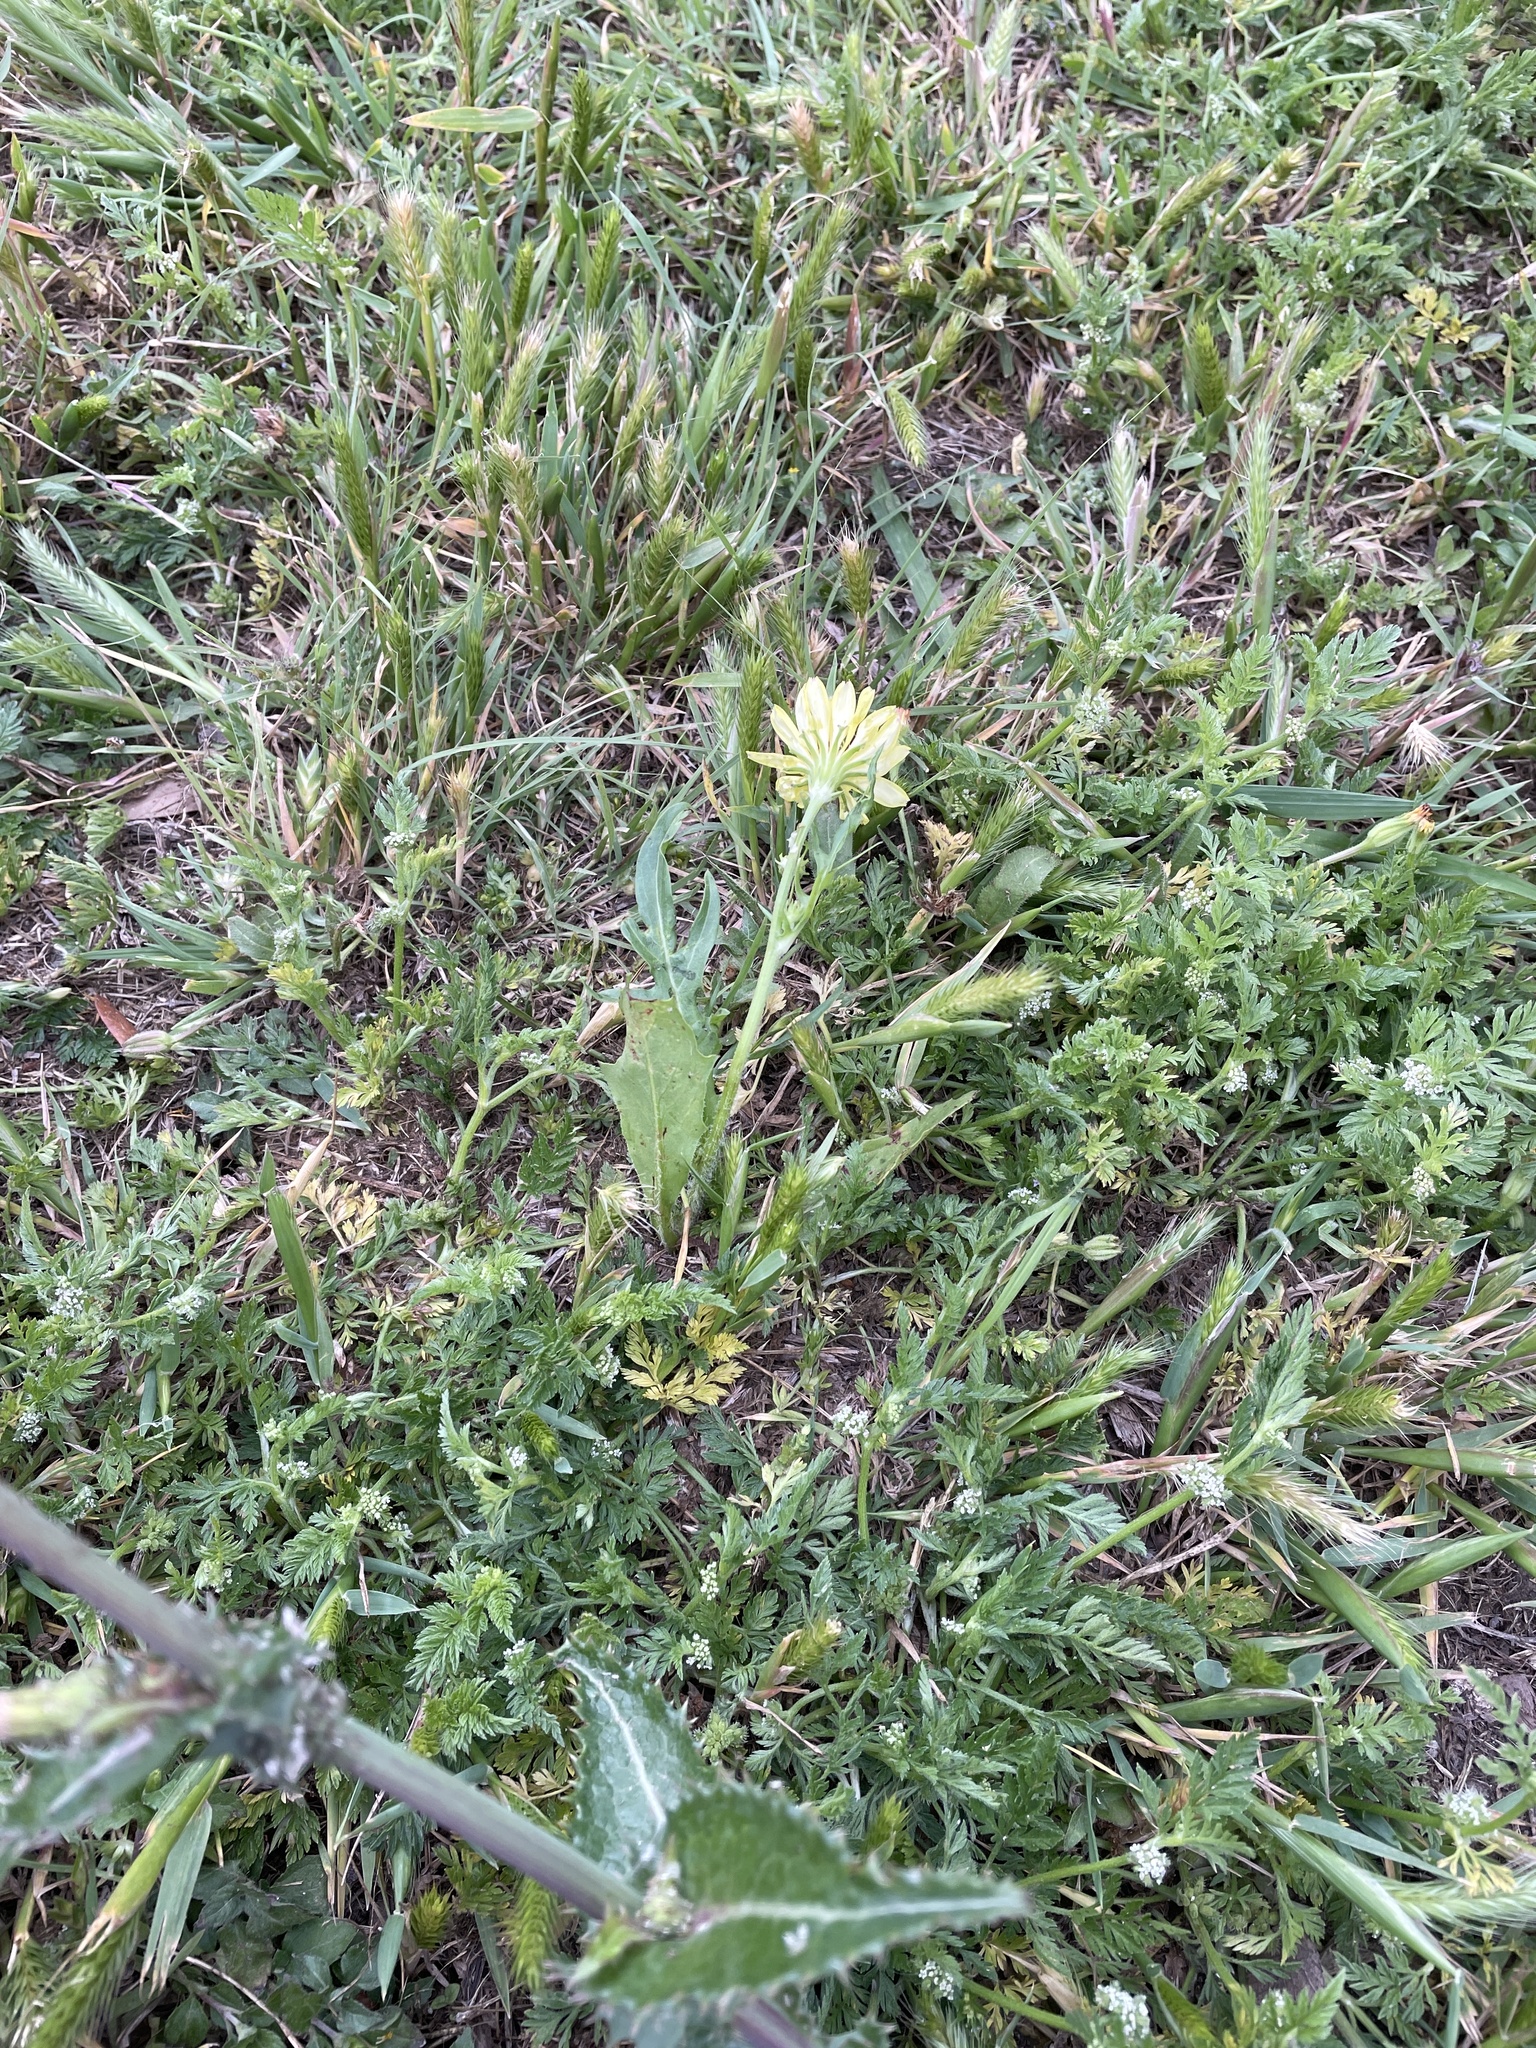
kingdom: Plantae
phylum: Tracheophyta
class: Magnoliopsida
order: Asterales
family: Asteraceae
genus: Pyrrhopappus
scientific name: Pyrrhopappus pauciflorus
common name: Texas false dandelion
